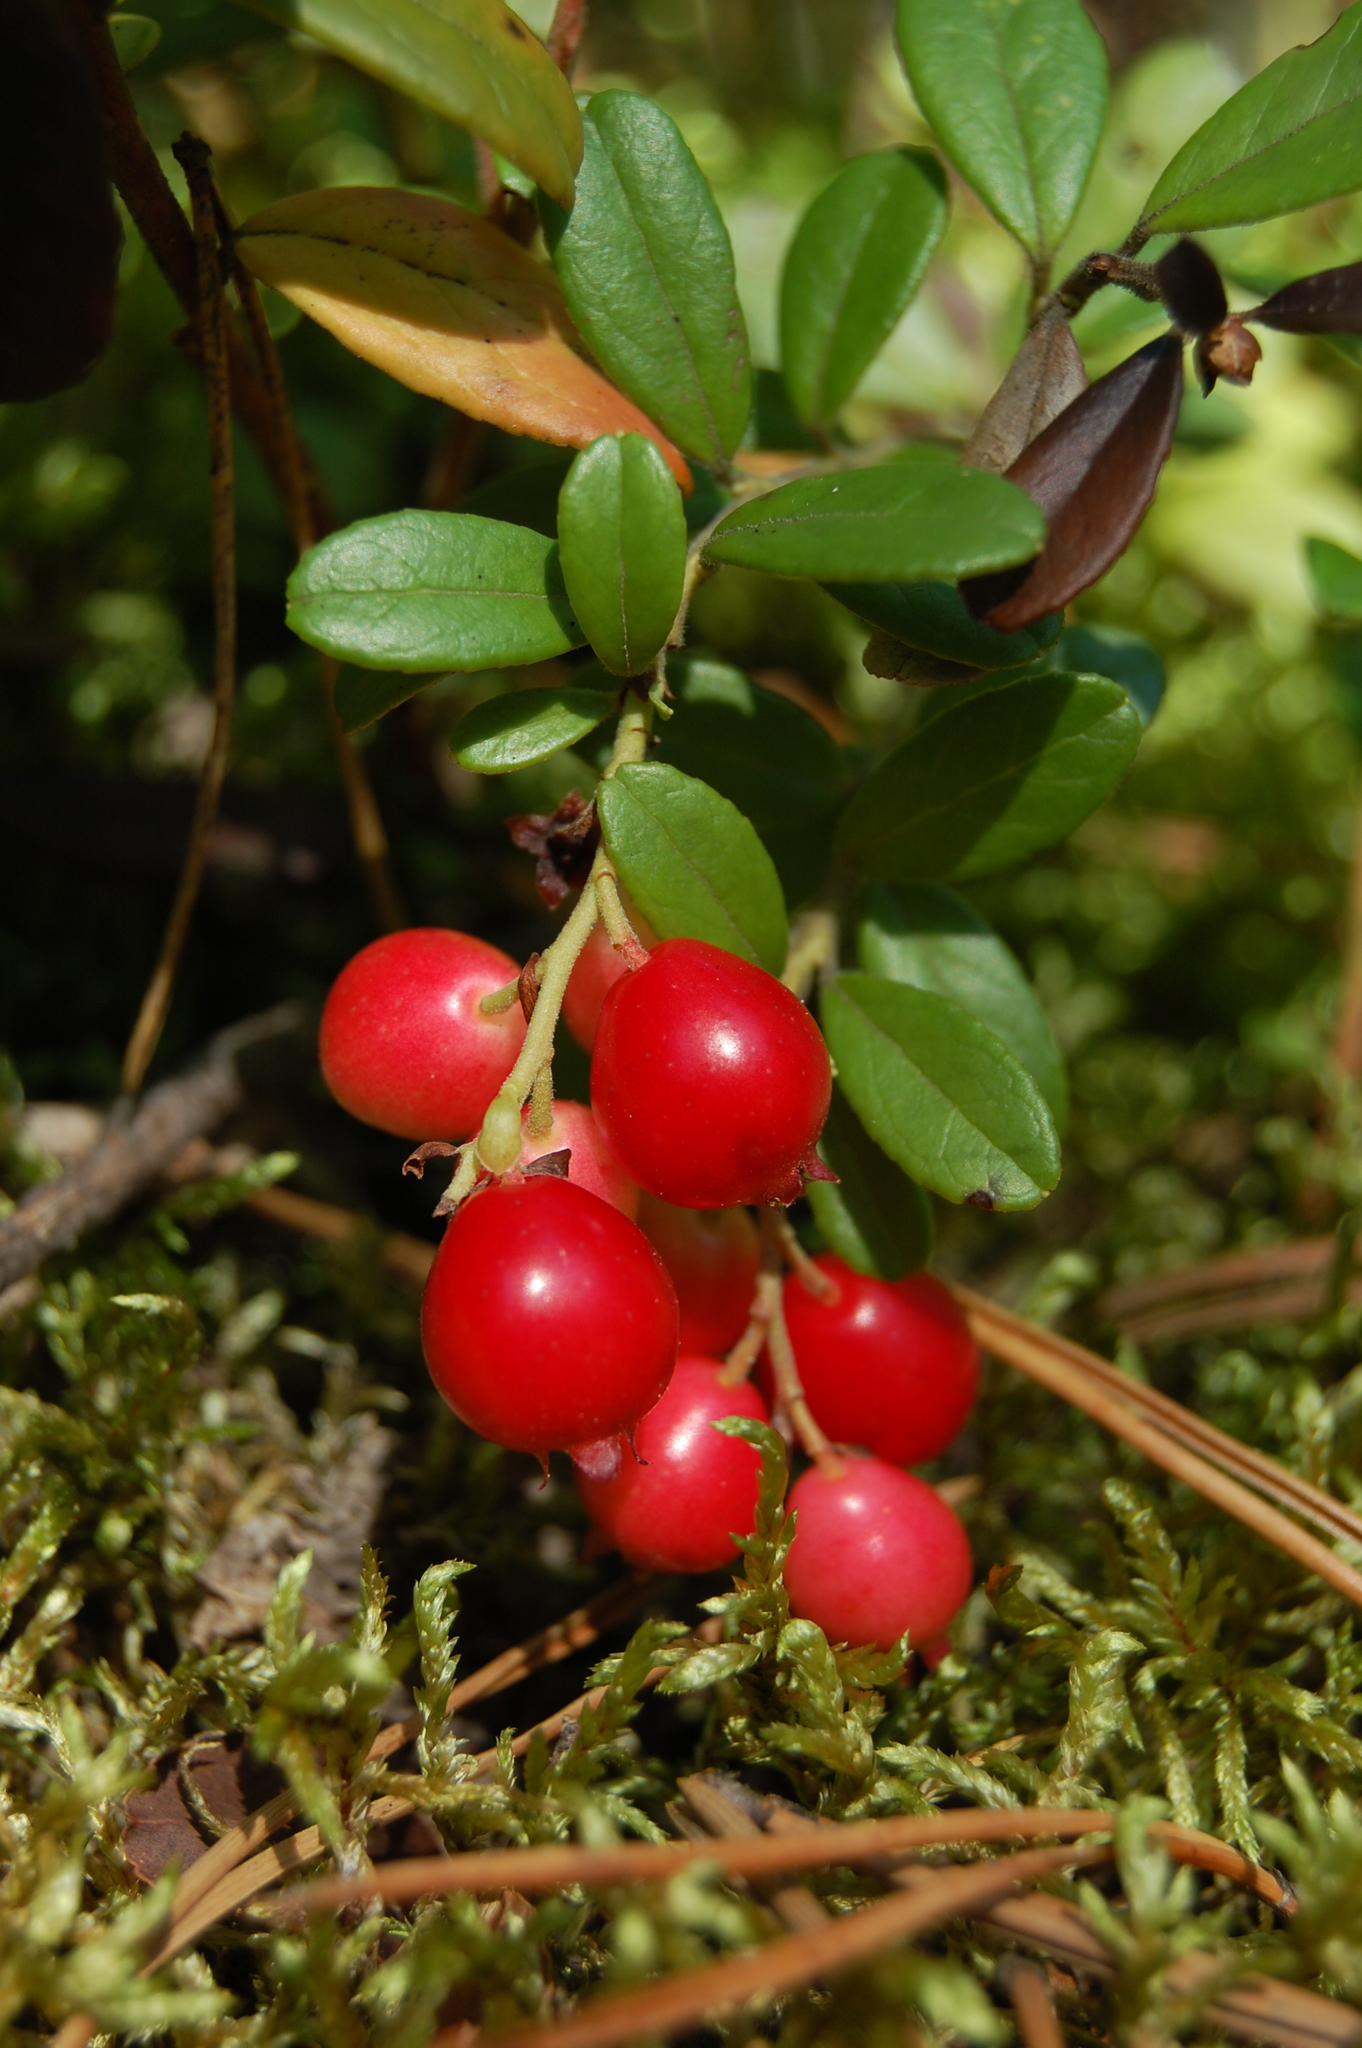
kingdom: Plantae
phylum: Tracheophyta
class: Magnoliopsida
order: Ericales
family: Ericaceae
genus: Vaccinium
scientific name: Vaccinium vitis-idaea
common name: Cowberry
